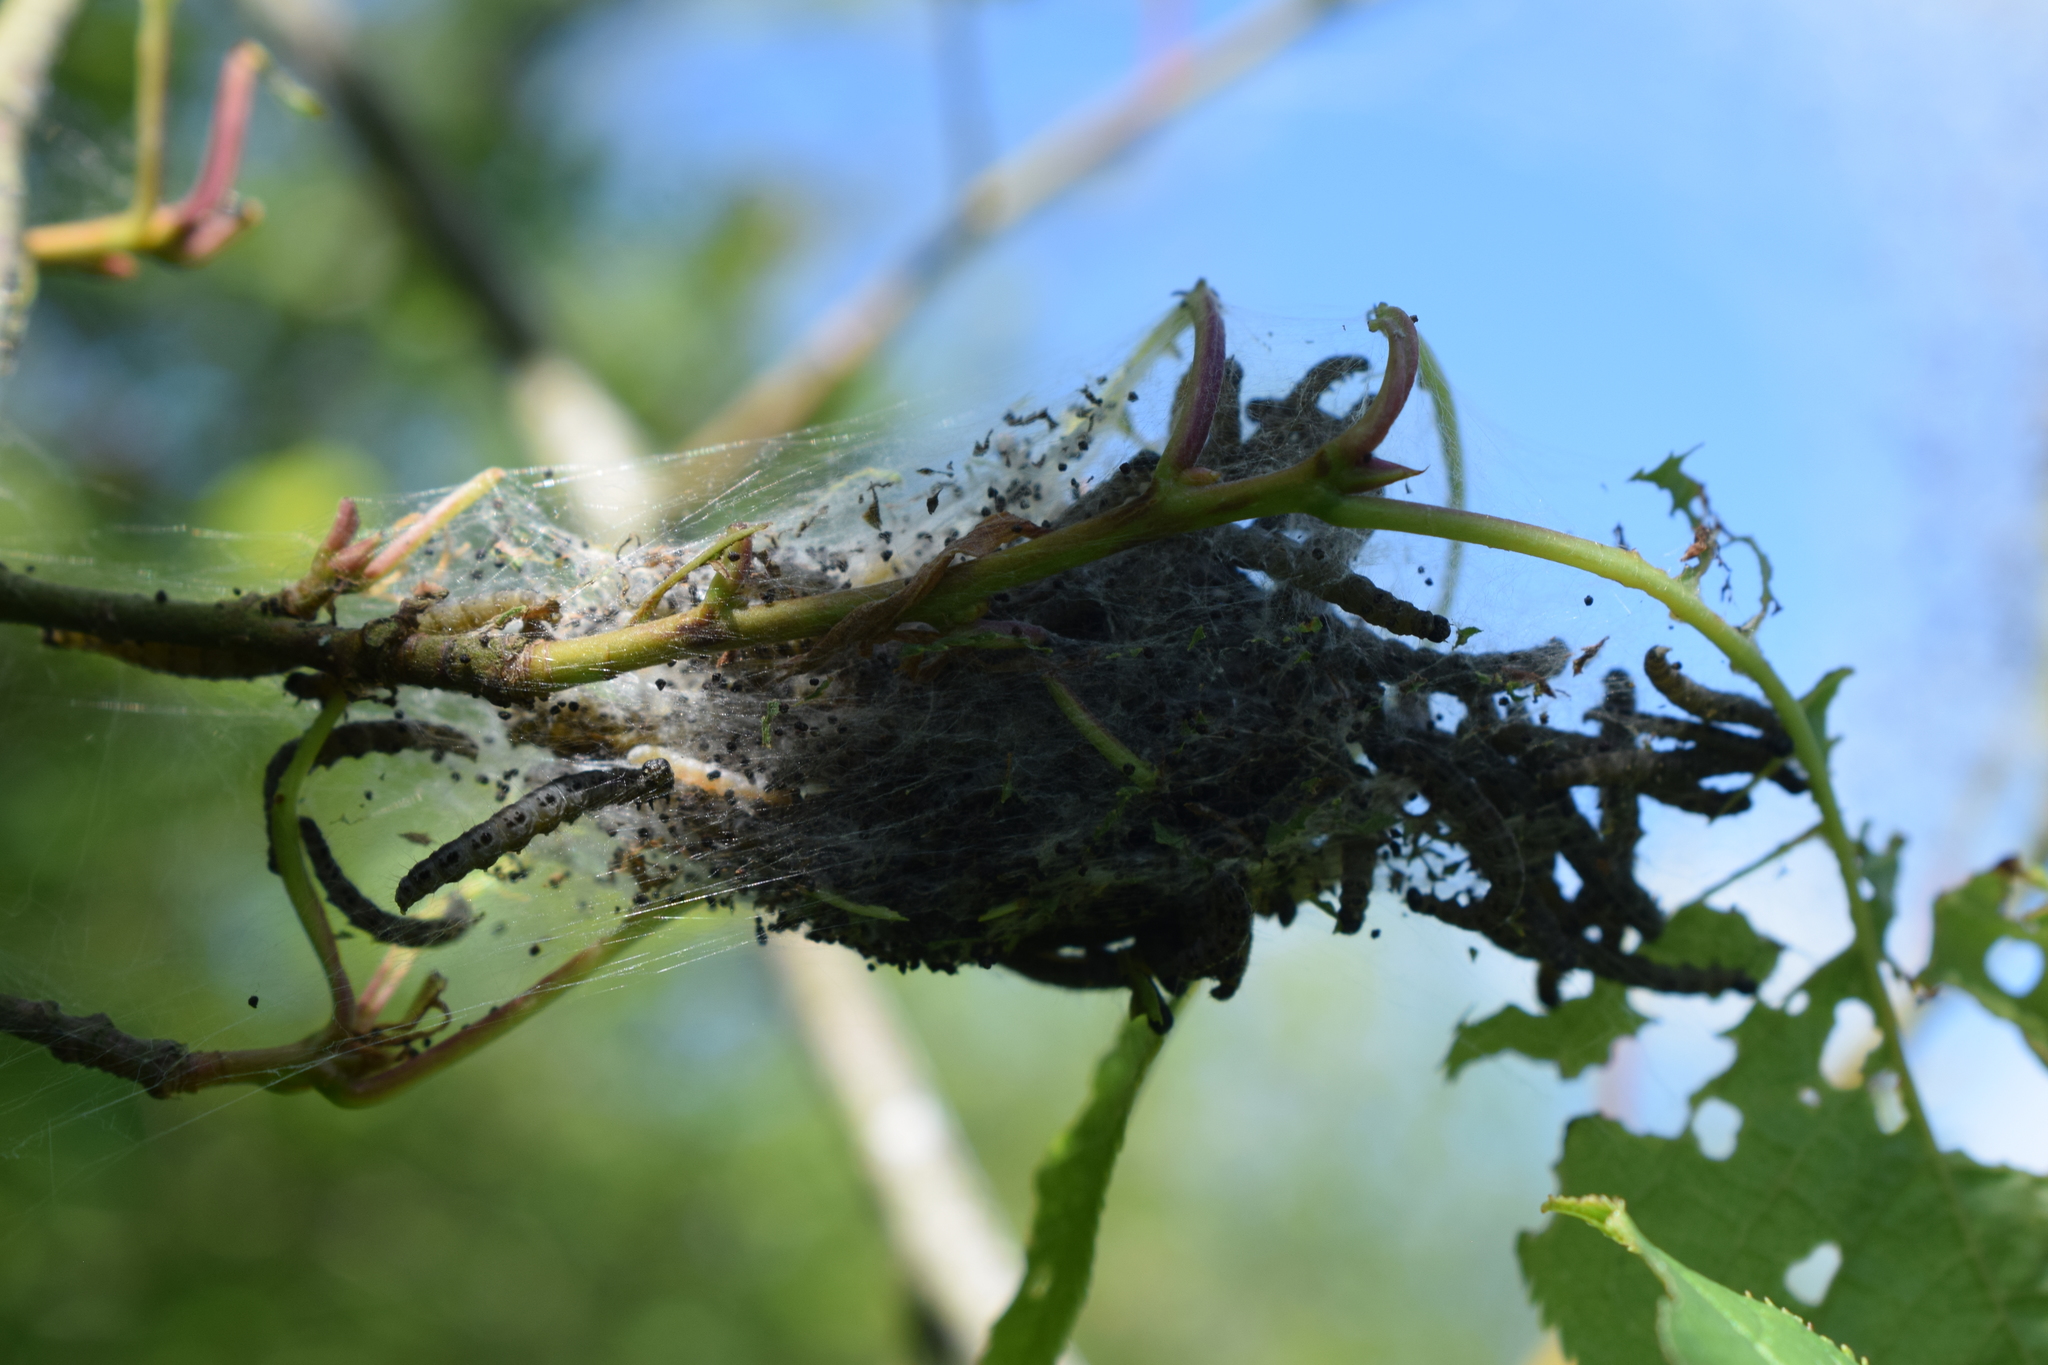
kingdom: Animalia
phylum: Arthropoda
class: Insecta
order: Lepidoptera
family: Yponomeutidae
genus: Yponomeuta
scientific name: Yponomeuta evonymella
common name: Bird-cherry ermine
